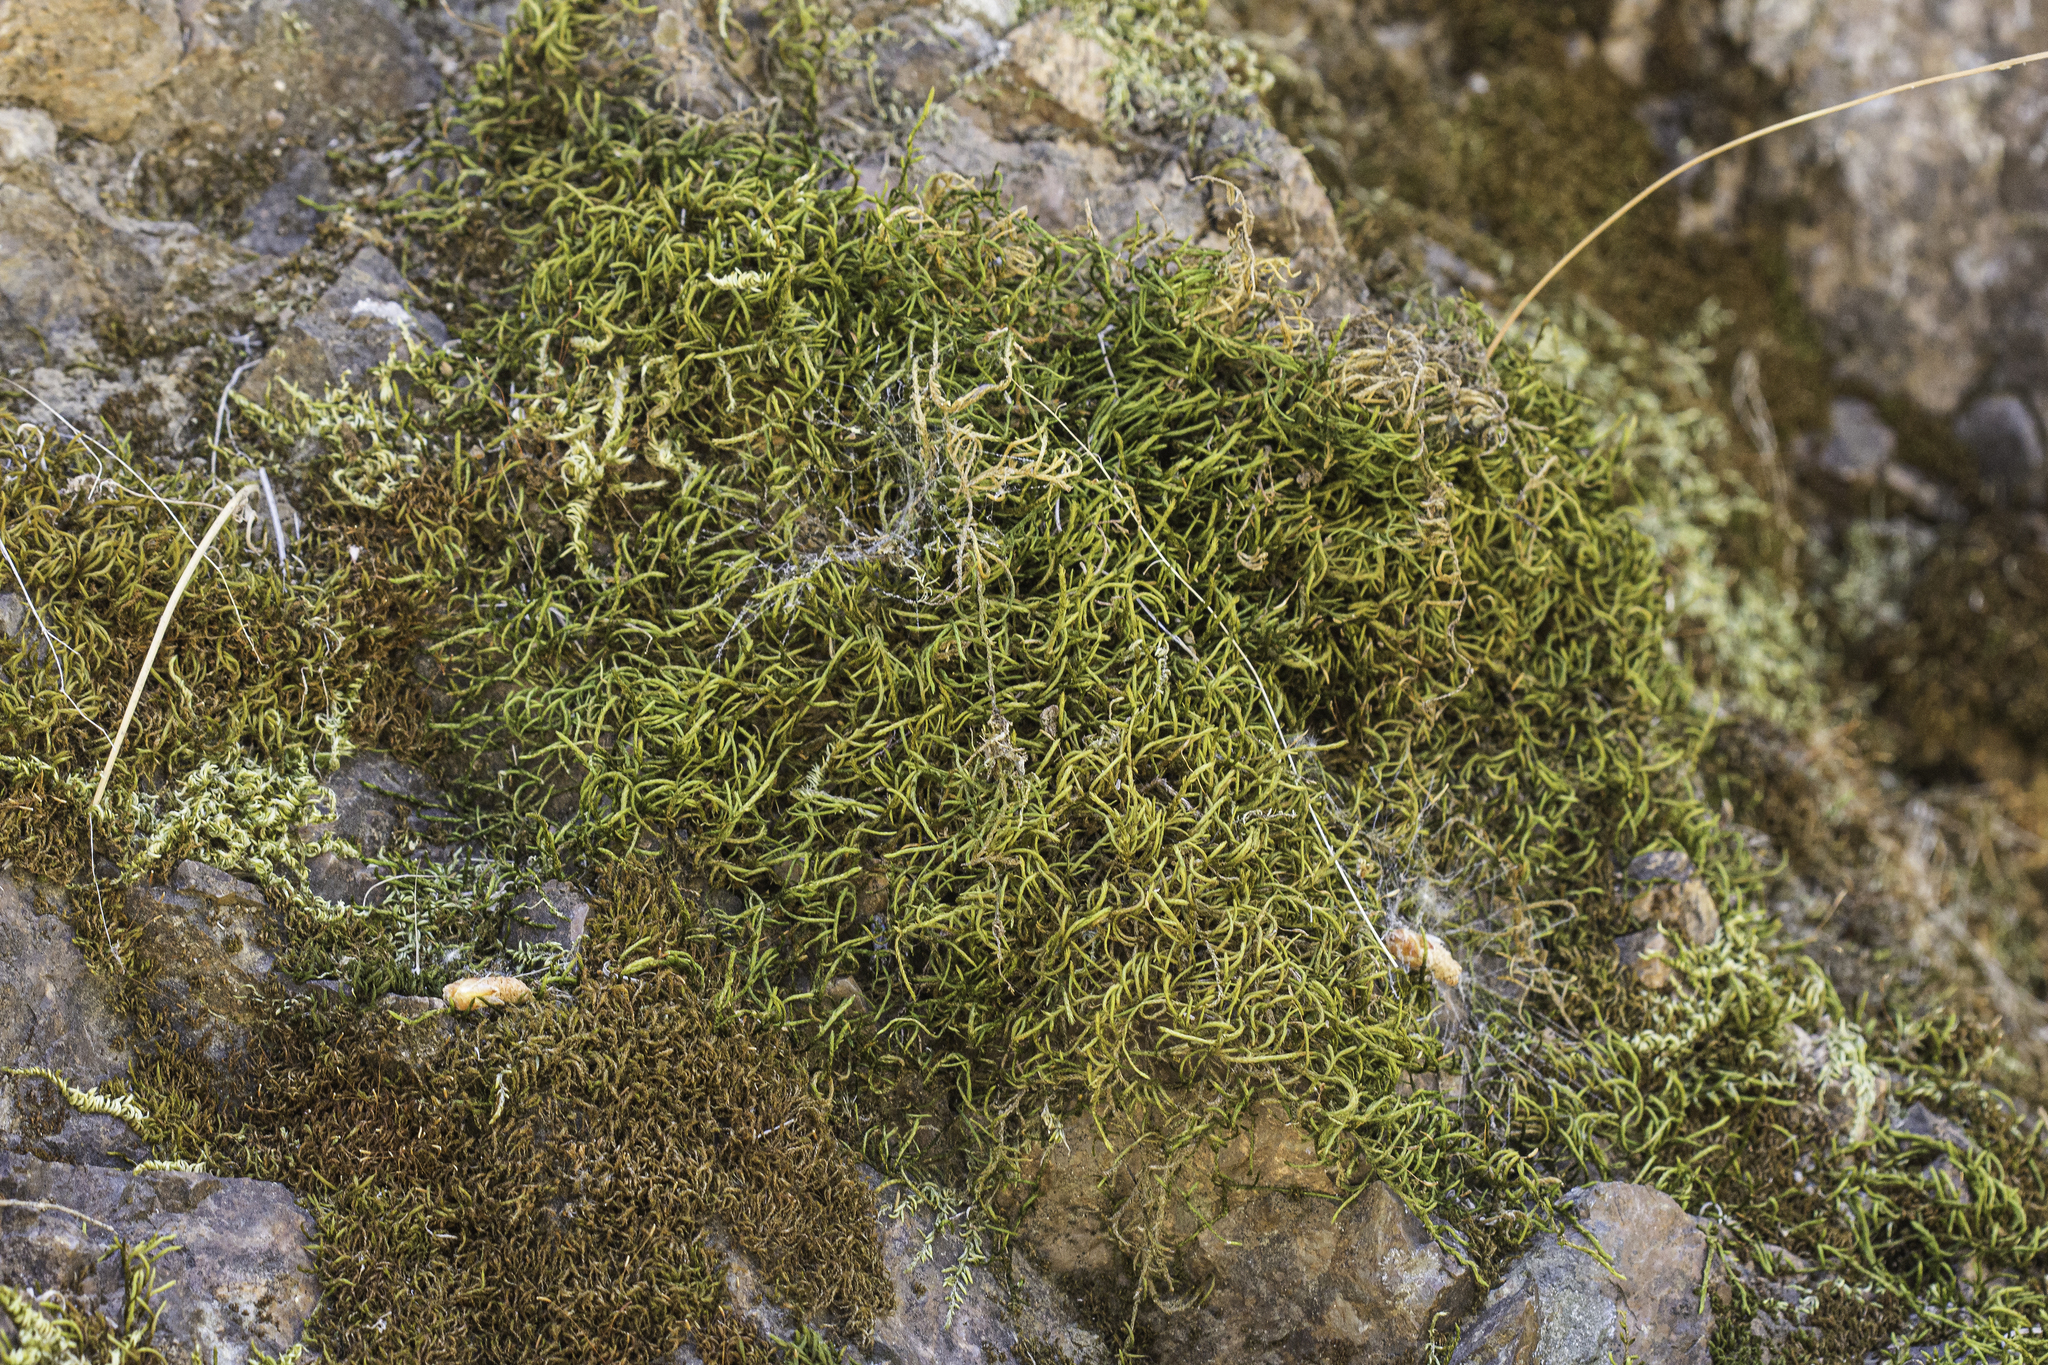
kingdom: Plantae
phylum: Tracheophyta
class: Lycopodiopsida
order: Selaginellales
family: Selaginellaceae
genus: Selaginella
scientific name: Selaginella bigelovii
